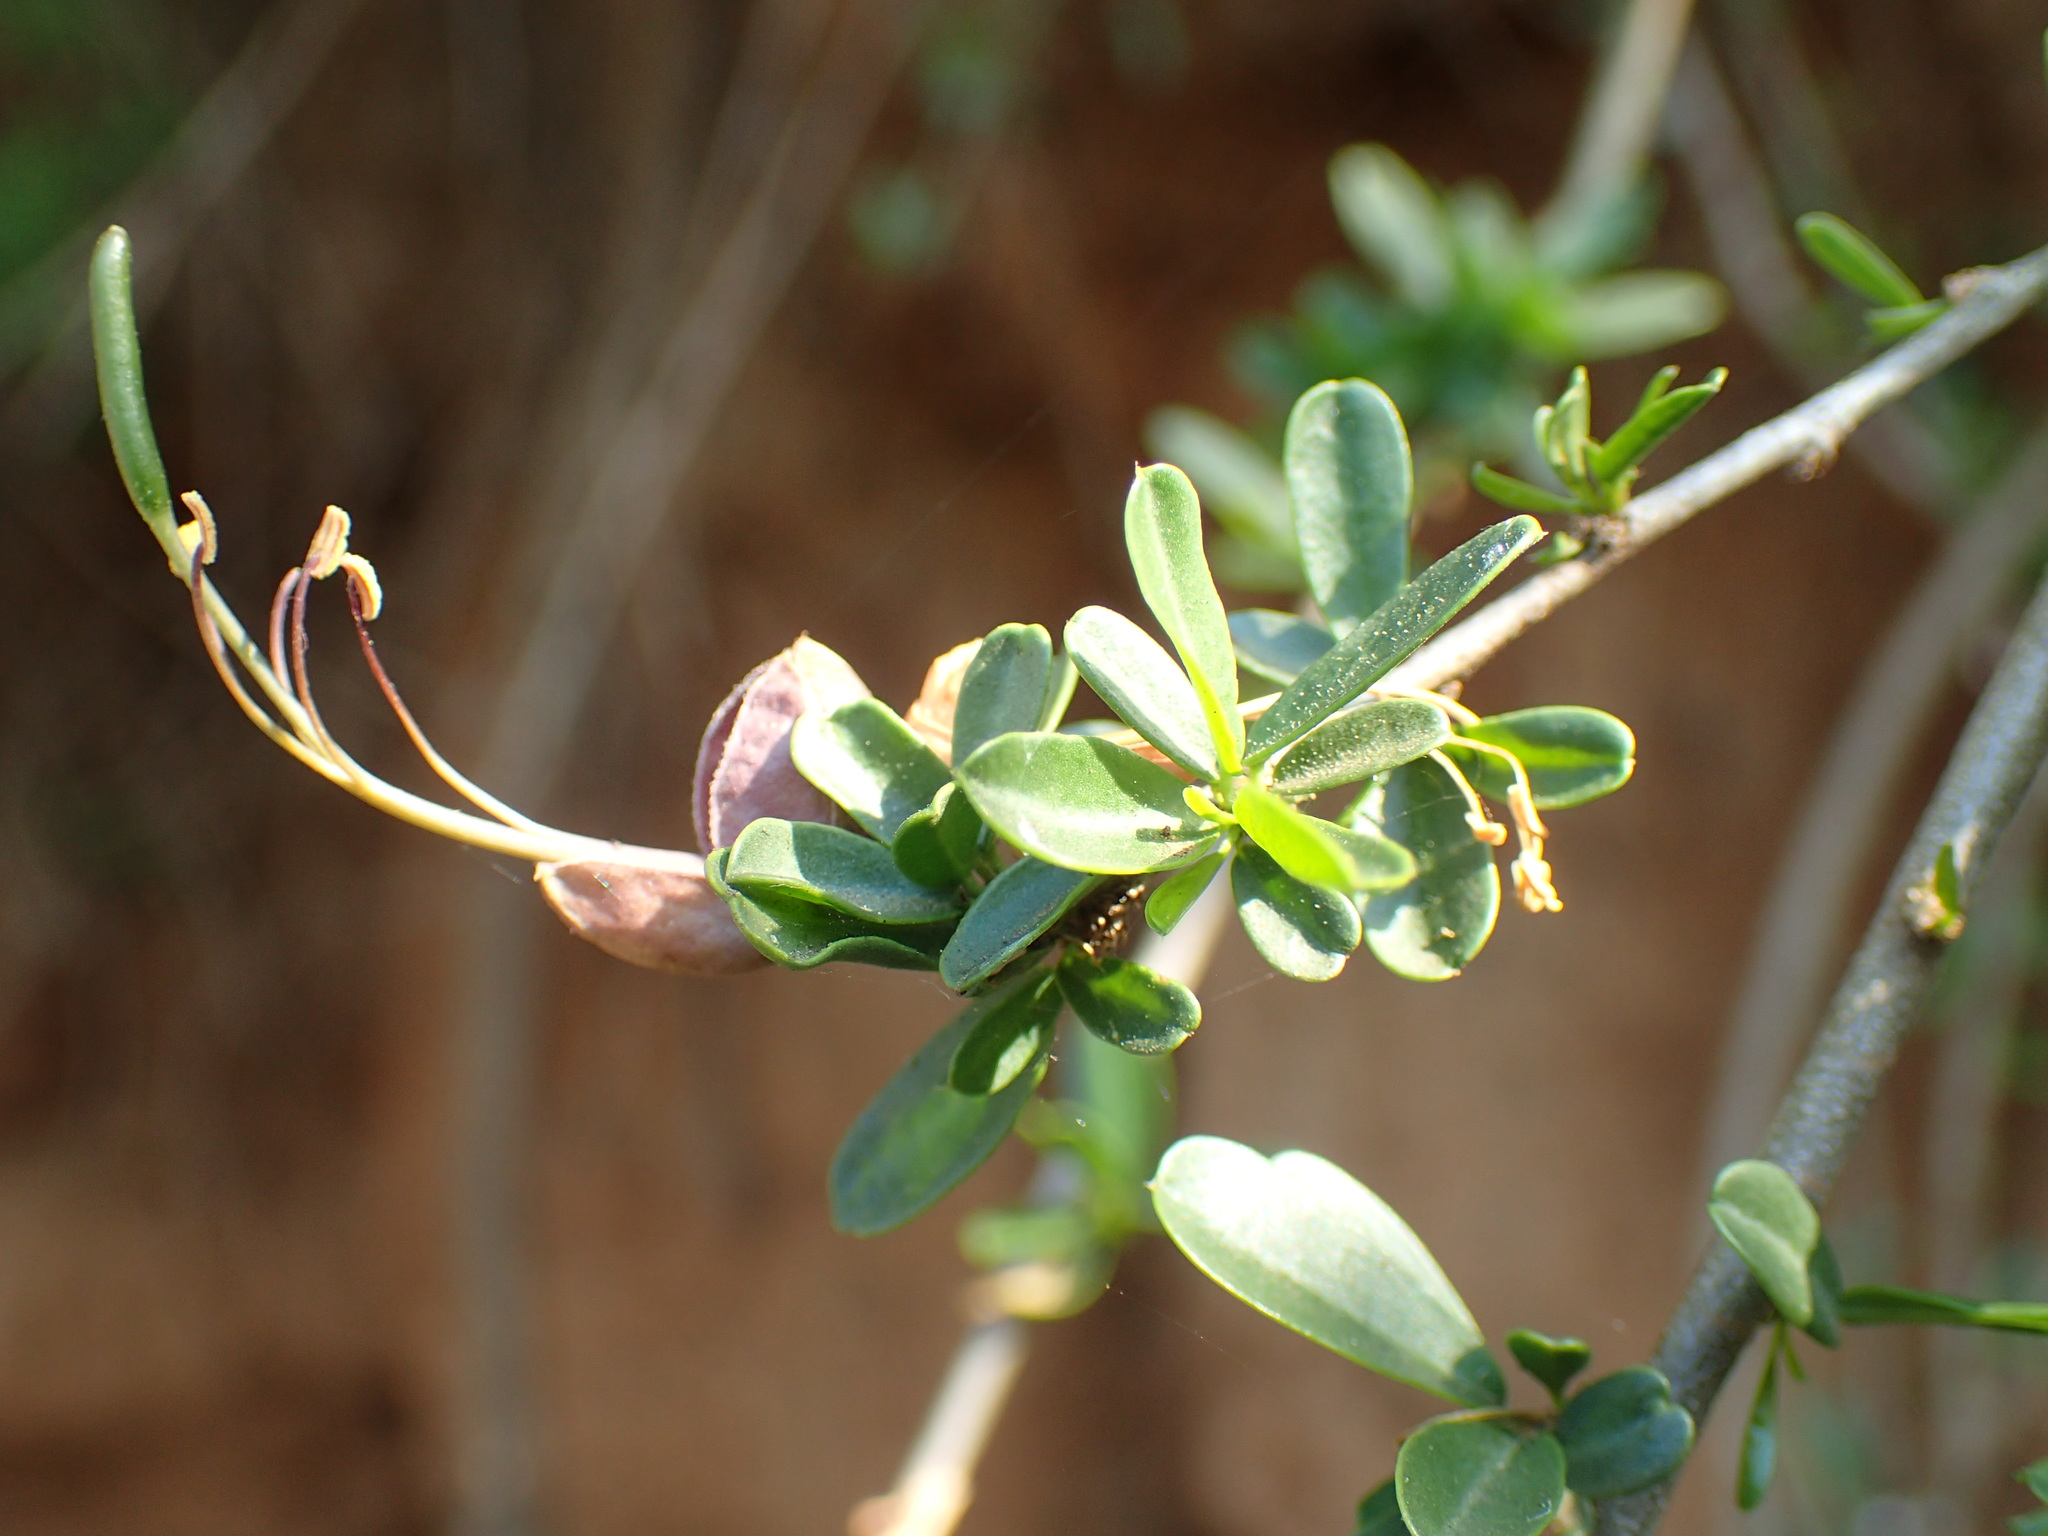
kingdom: Plantae
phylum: Tracheophyta
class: Magnoliopsida
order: Brassicales
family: Capparaceae
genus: Cadaba
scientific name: Cadaba natalensis
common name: Natal worm bush
